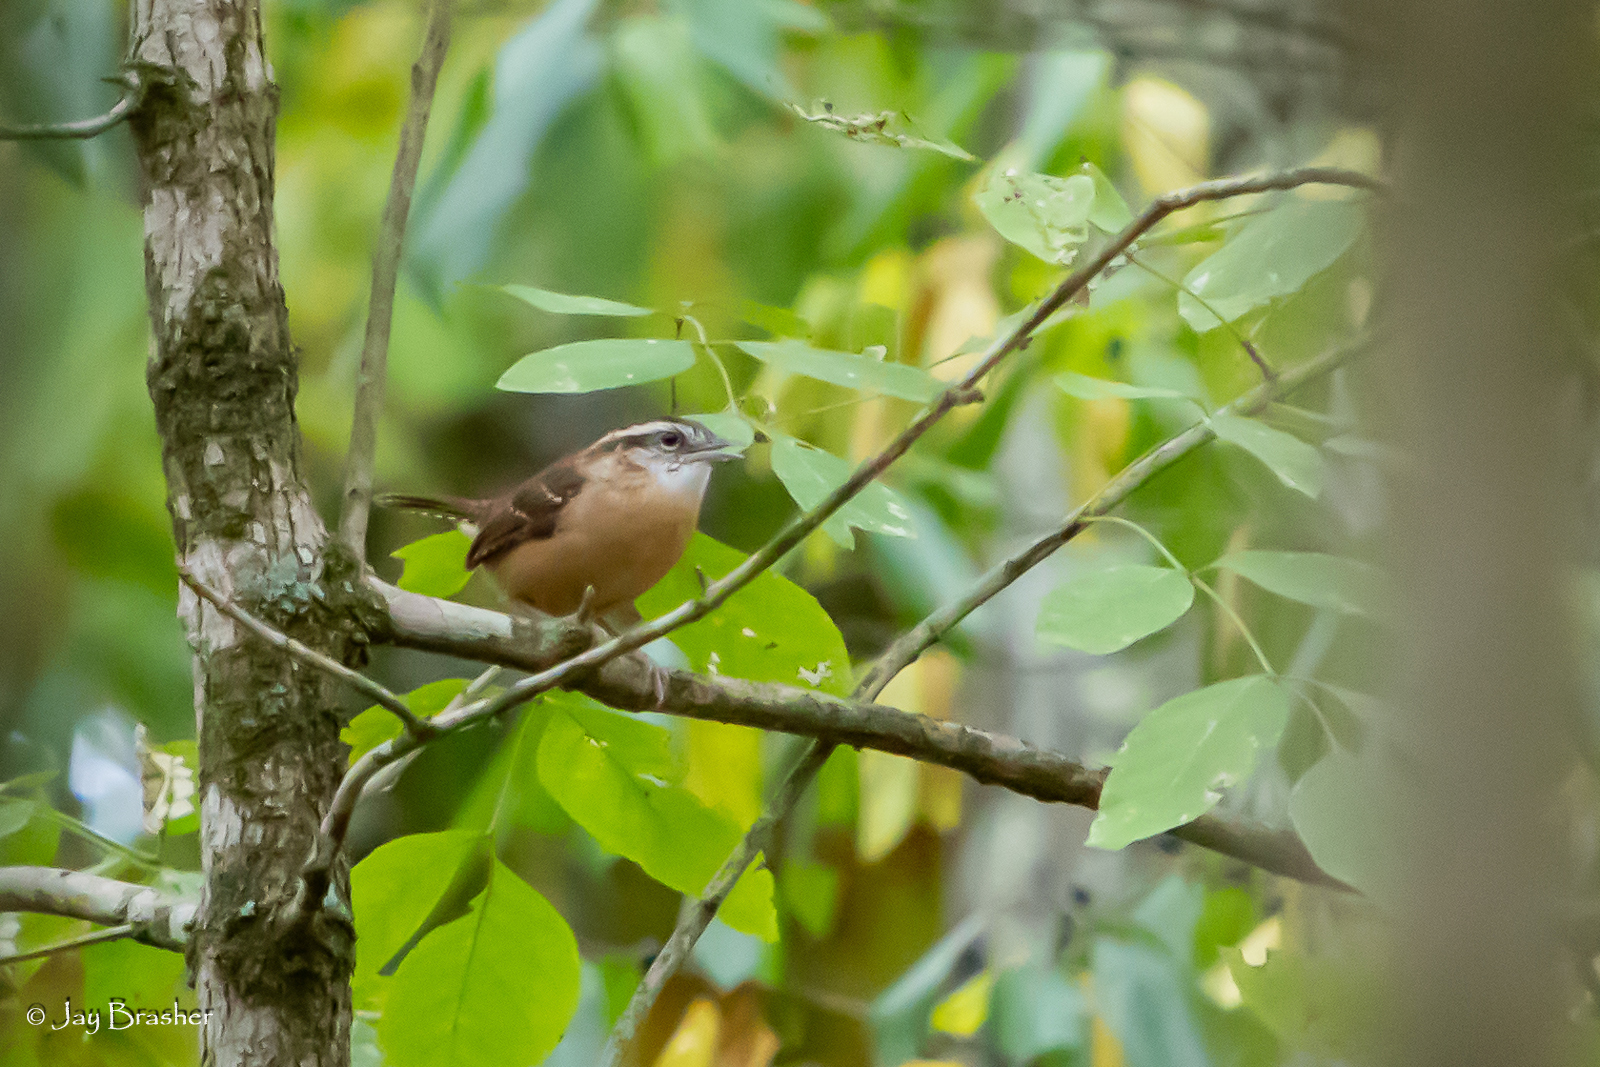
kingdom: Animalia
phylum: Chordata
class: Aves
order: Passeriformes
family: Troglodytidae
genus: Thryothorus
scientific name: Thryothorus ludovicianus
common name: Carolina wren
